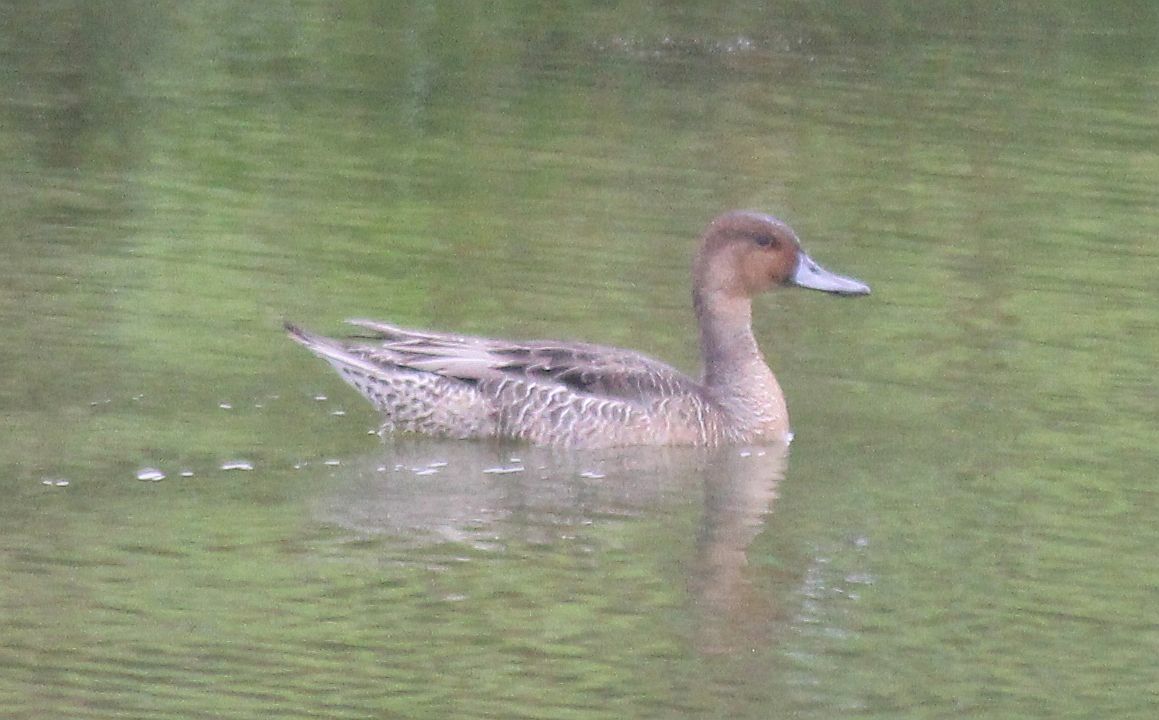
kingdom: Animalia
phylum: Chordata
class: Aves
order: Anseriformes
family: Anatidae
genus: Anas
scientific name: Anas acuta
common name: Northern pintail
